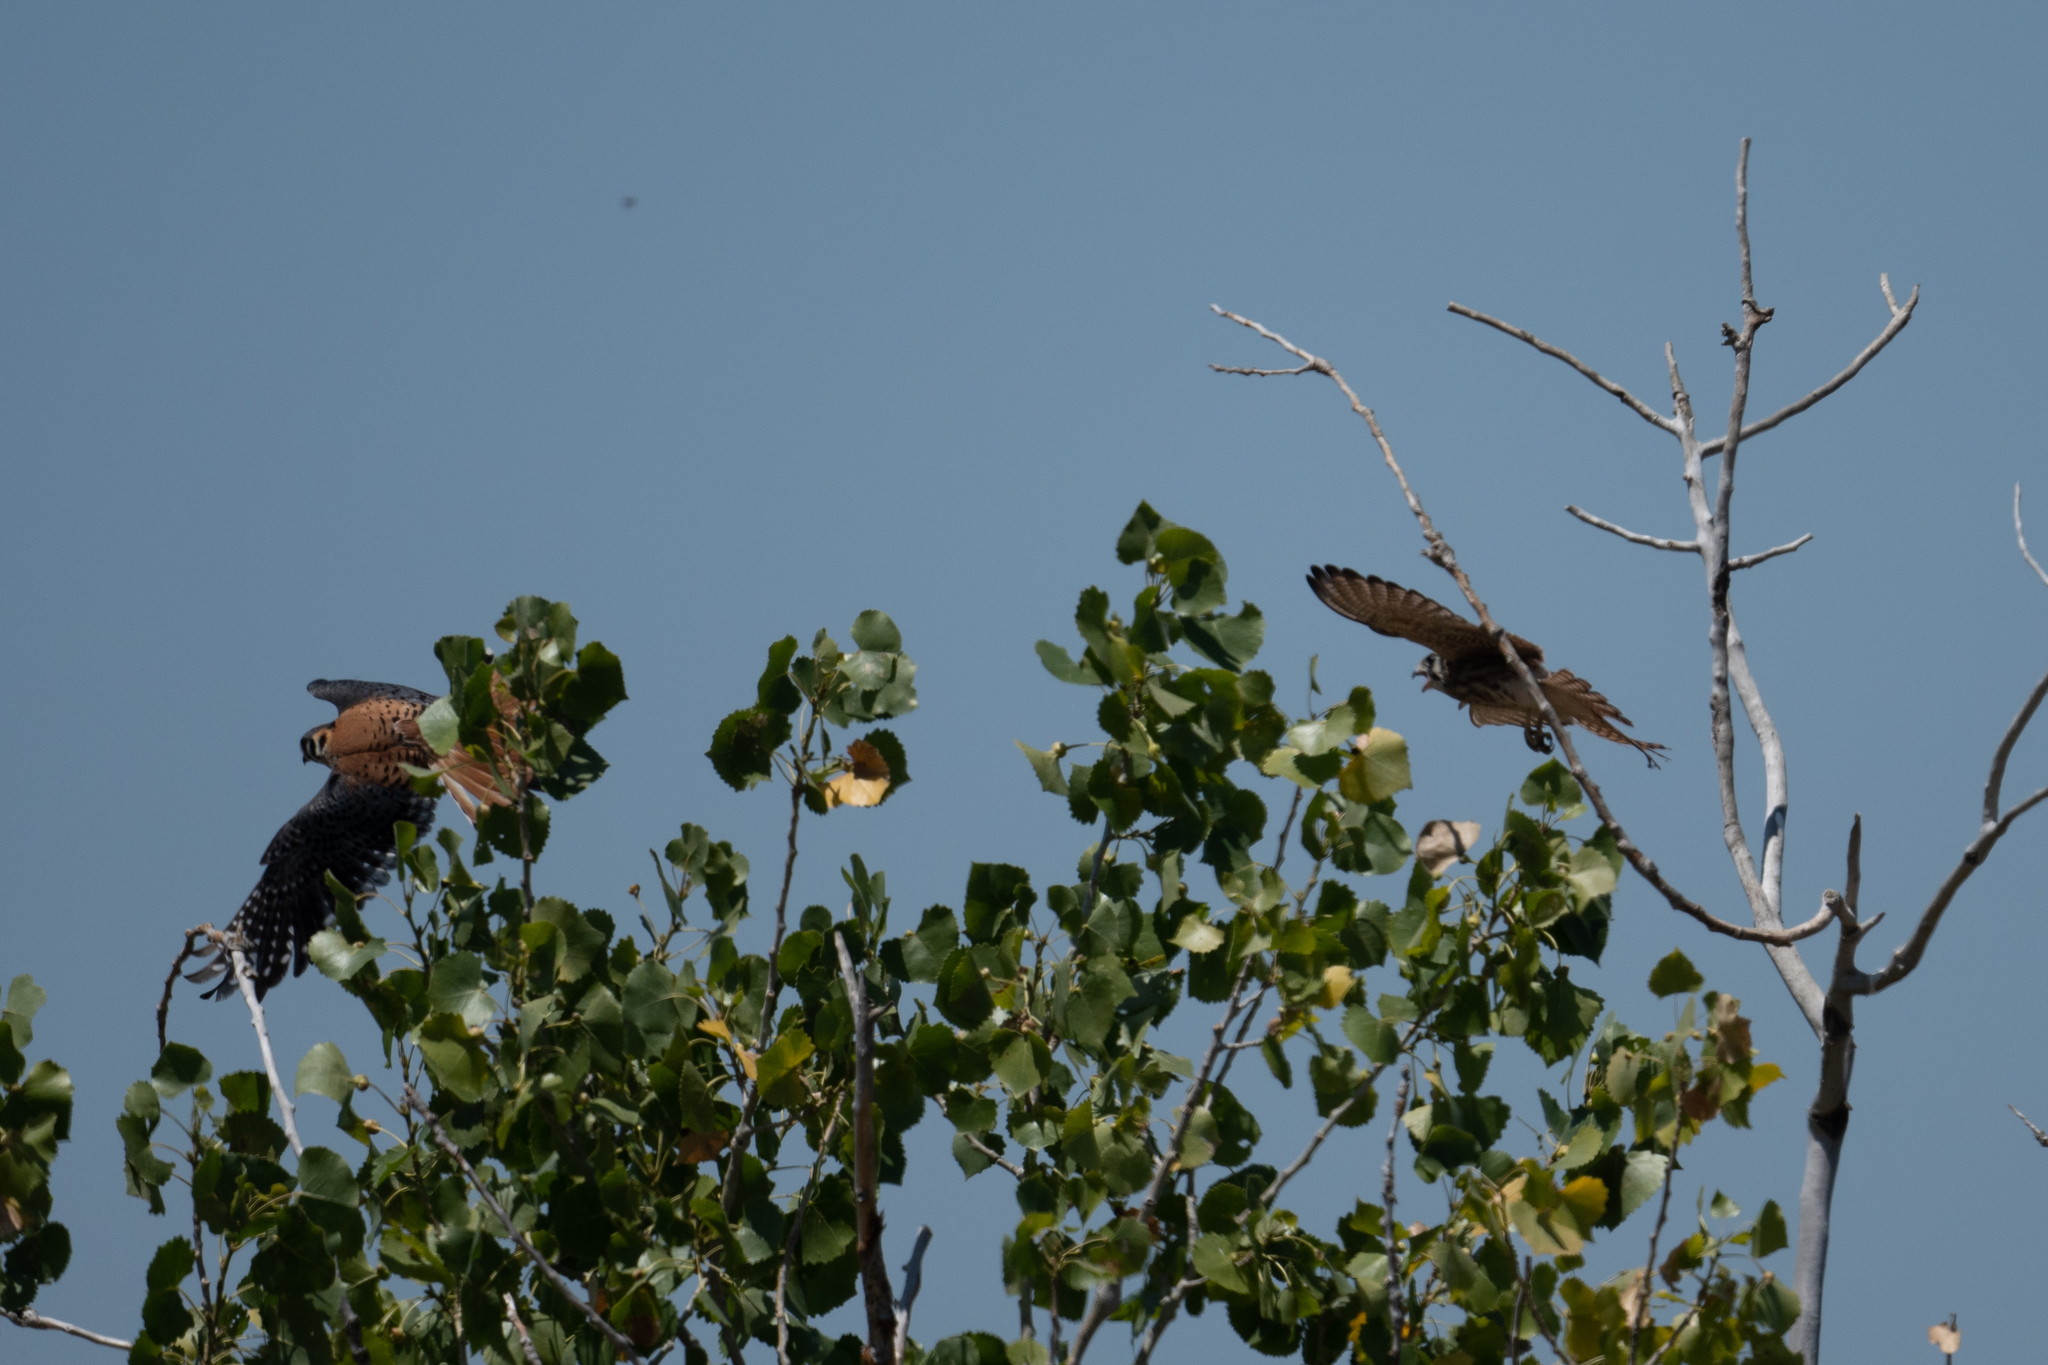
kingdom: Animalia
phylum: Chordata
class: Aves
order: Falconiformes
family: Falconidae
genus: Falco
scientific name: Falco sparverius
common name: American kestrel
